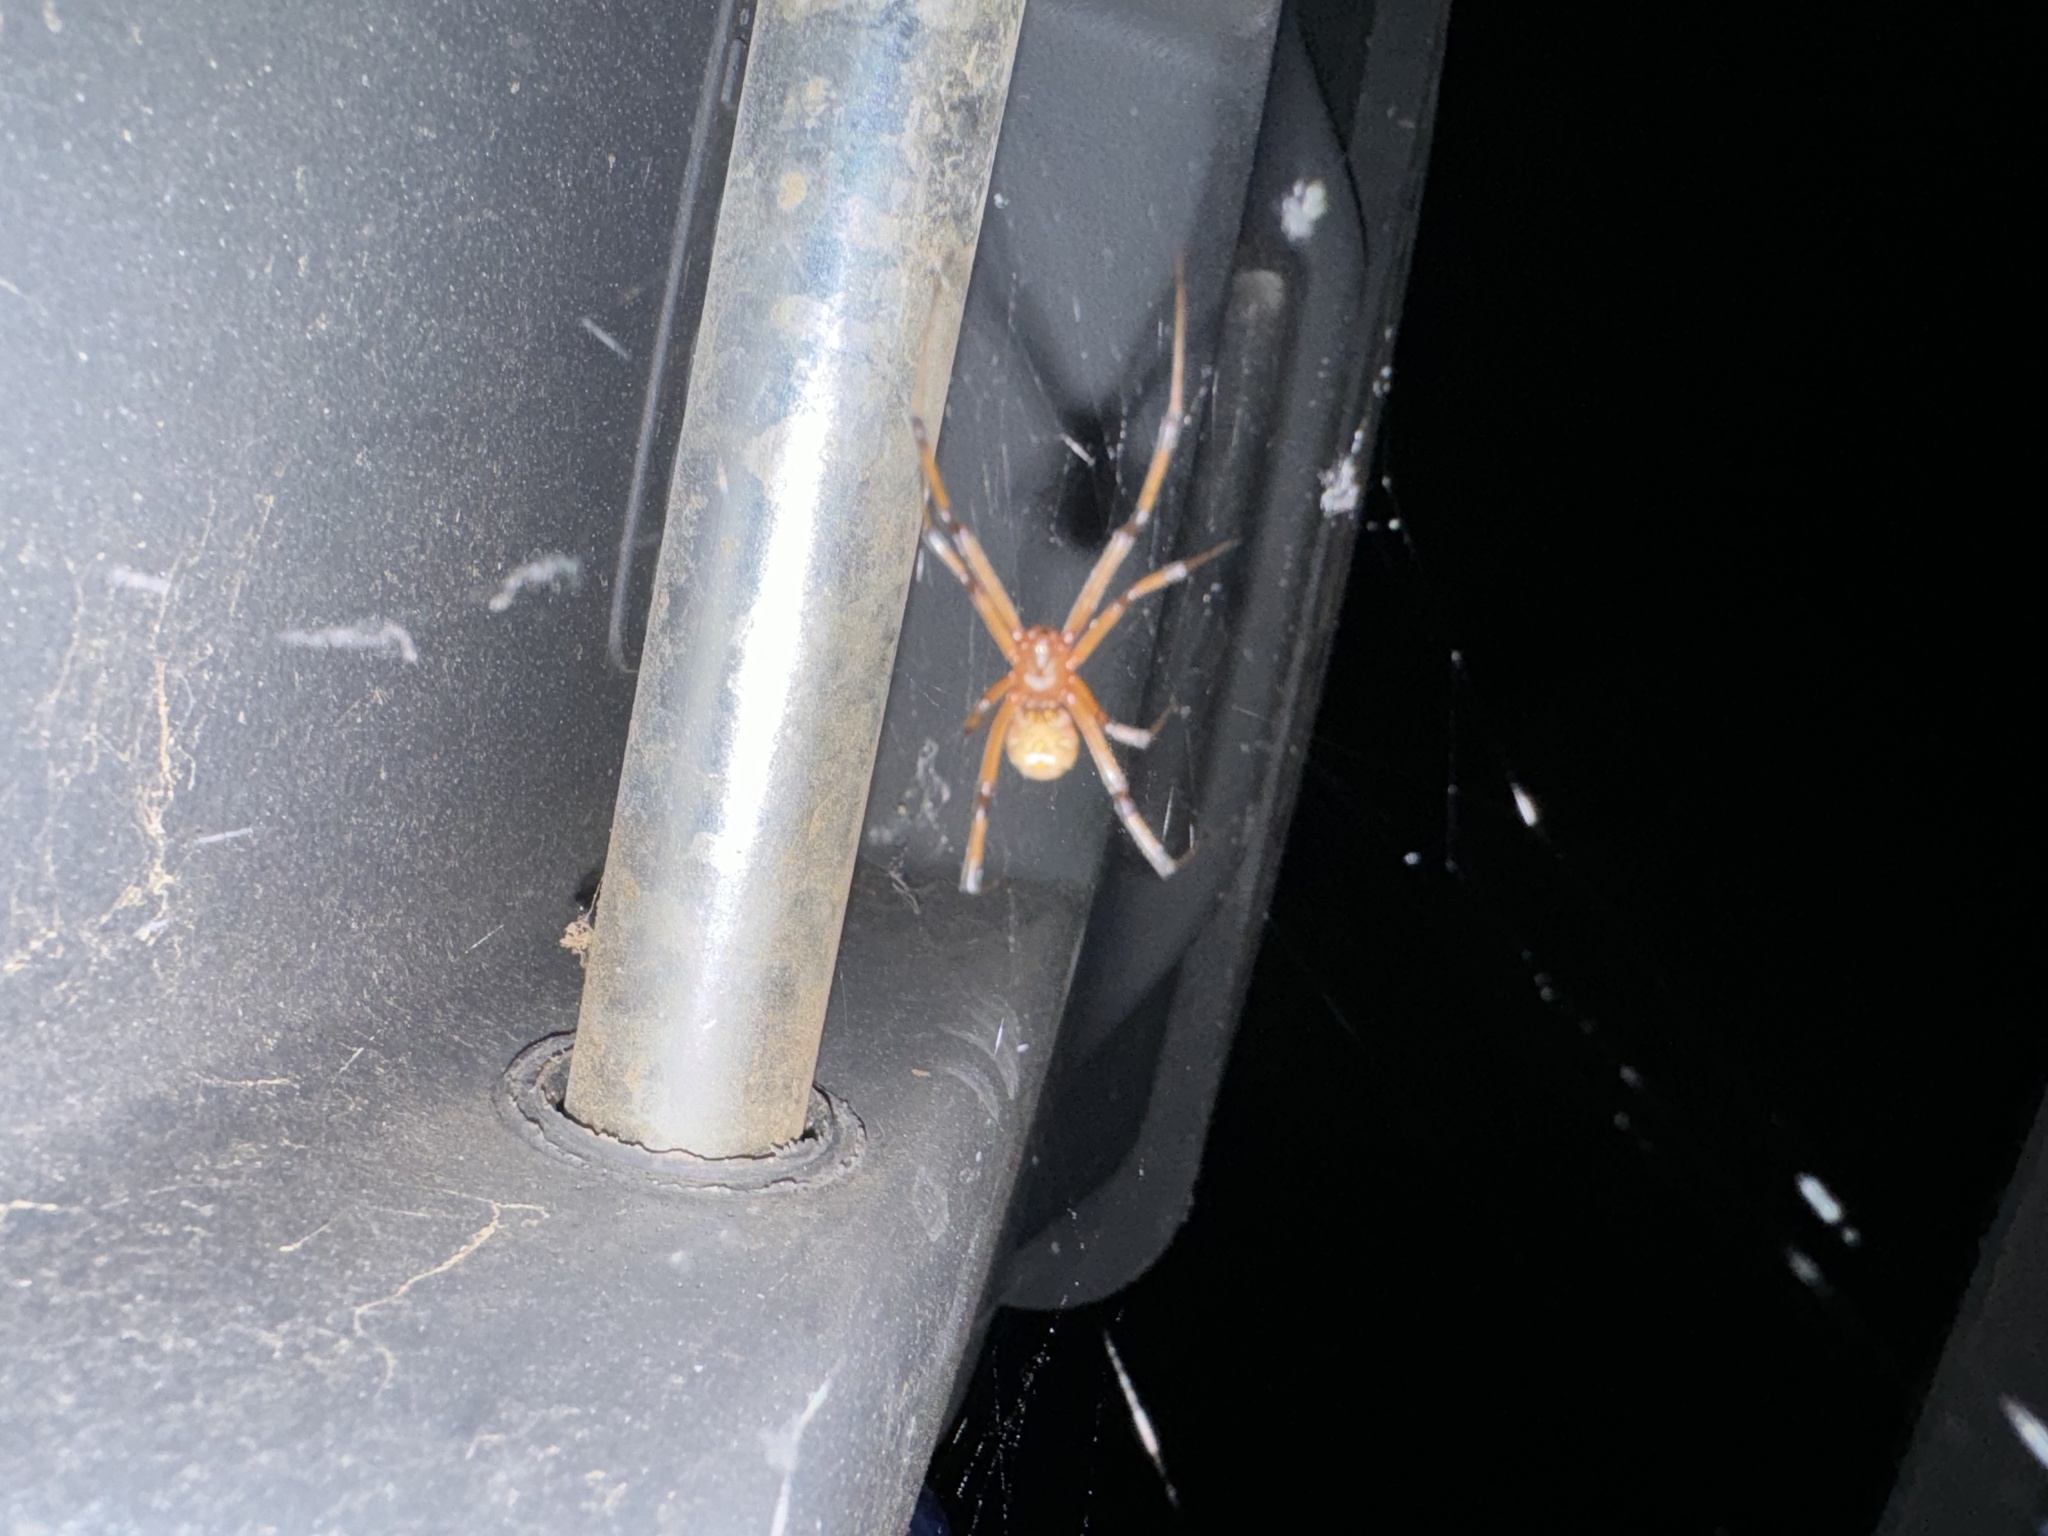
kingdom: Animalia
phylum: Arthropoda
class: Arachnida
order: Araneae
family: Theridiidae
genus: Latrodectus
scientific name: Latrodectus hesperus
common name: Western black widow
